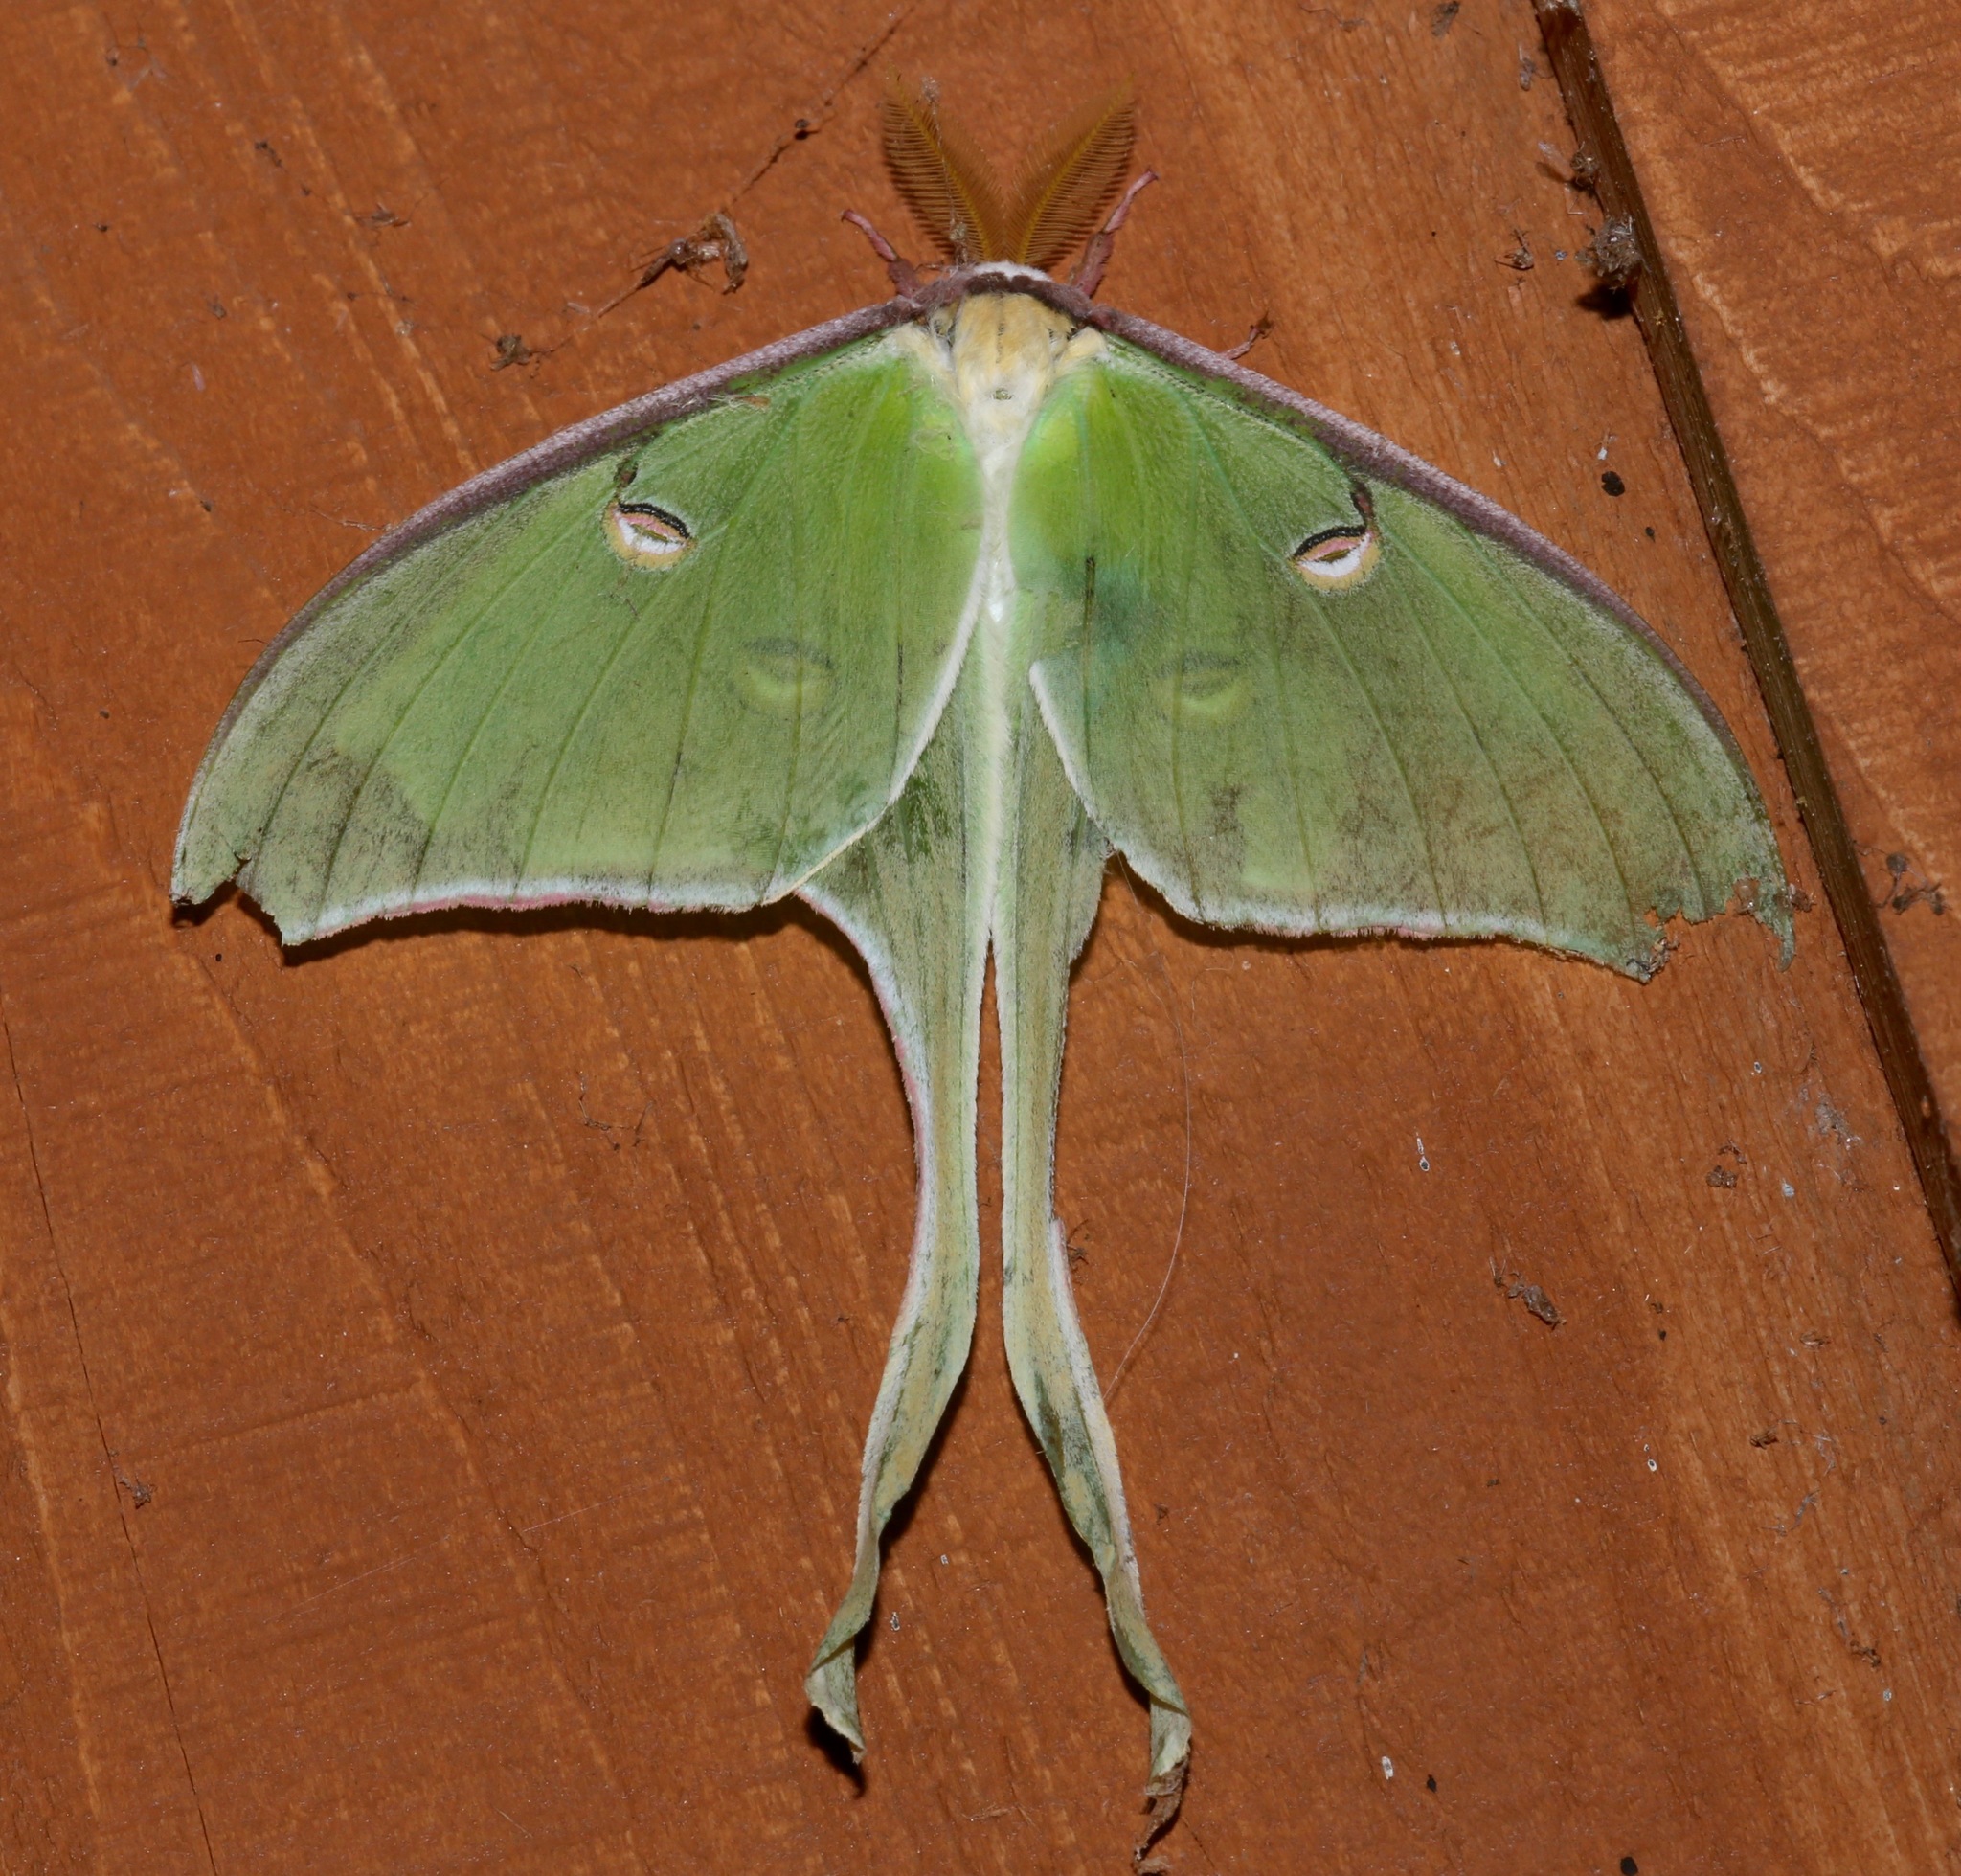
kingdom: Animalia
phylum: Arthropoda
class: Insecta
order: Lepidoptera
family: Saturniidae
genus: Actias
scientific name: Actias luna
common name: Luna moth
